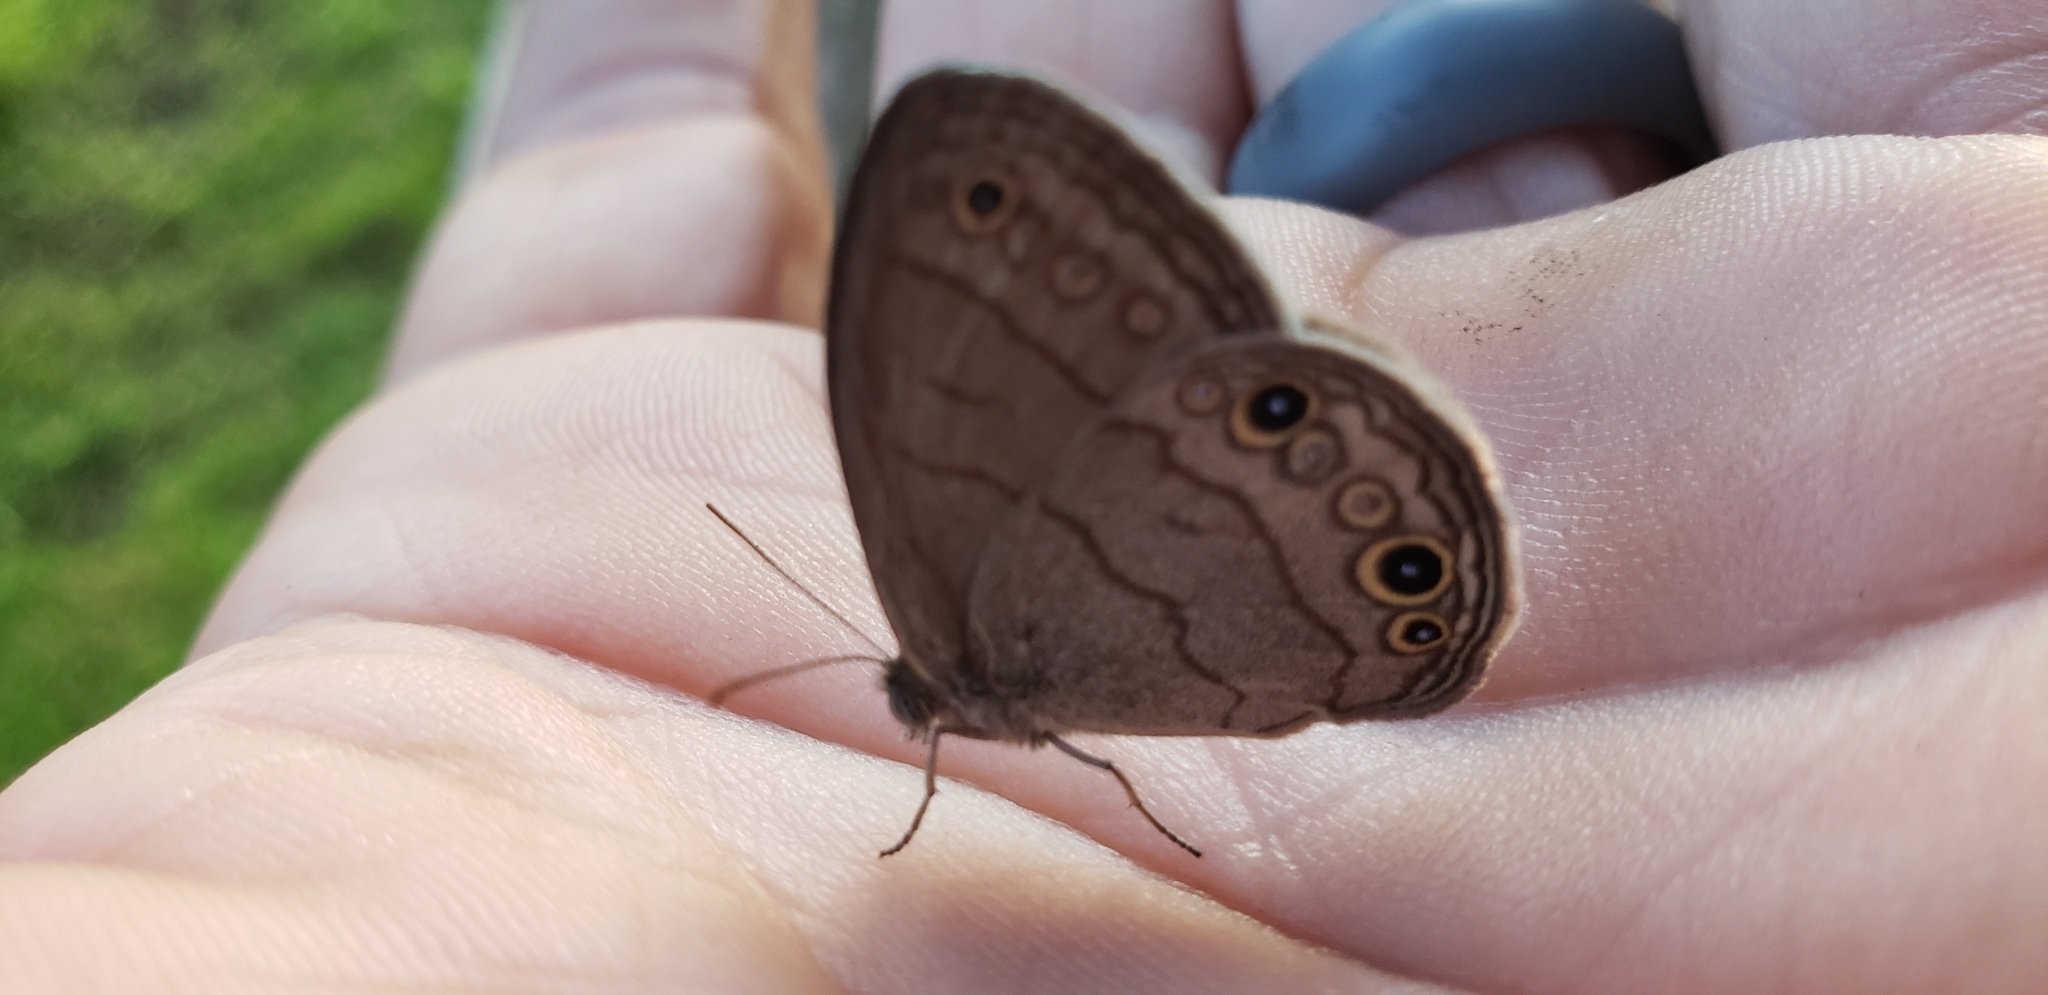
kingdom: Animalia
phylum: Arthropoda
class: Insecta
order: Lepidoptera
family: Nymphalidae
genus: Hermeuptychia
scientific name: Hermeuptychia hermes
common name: Hermes satyr
